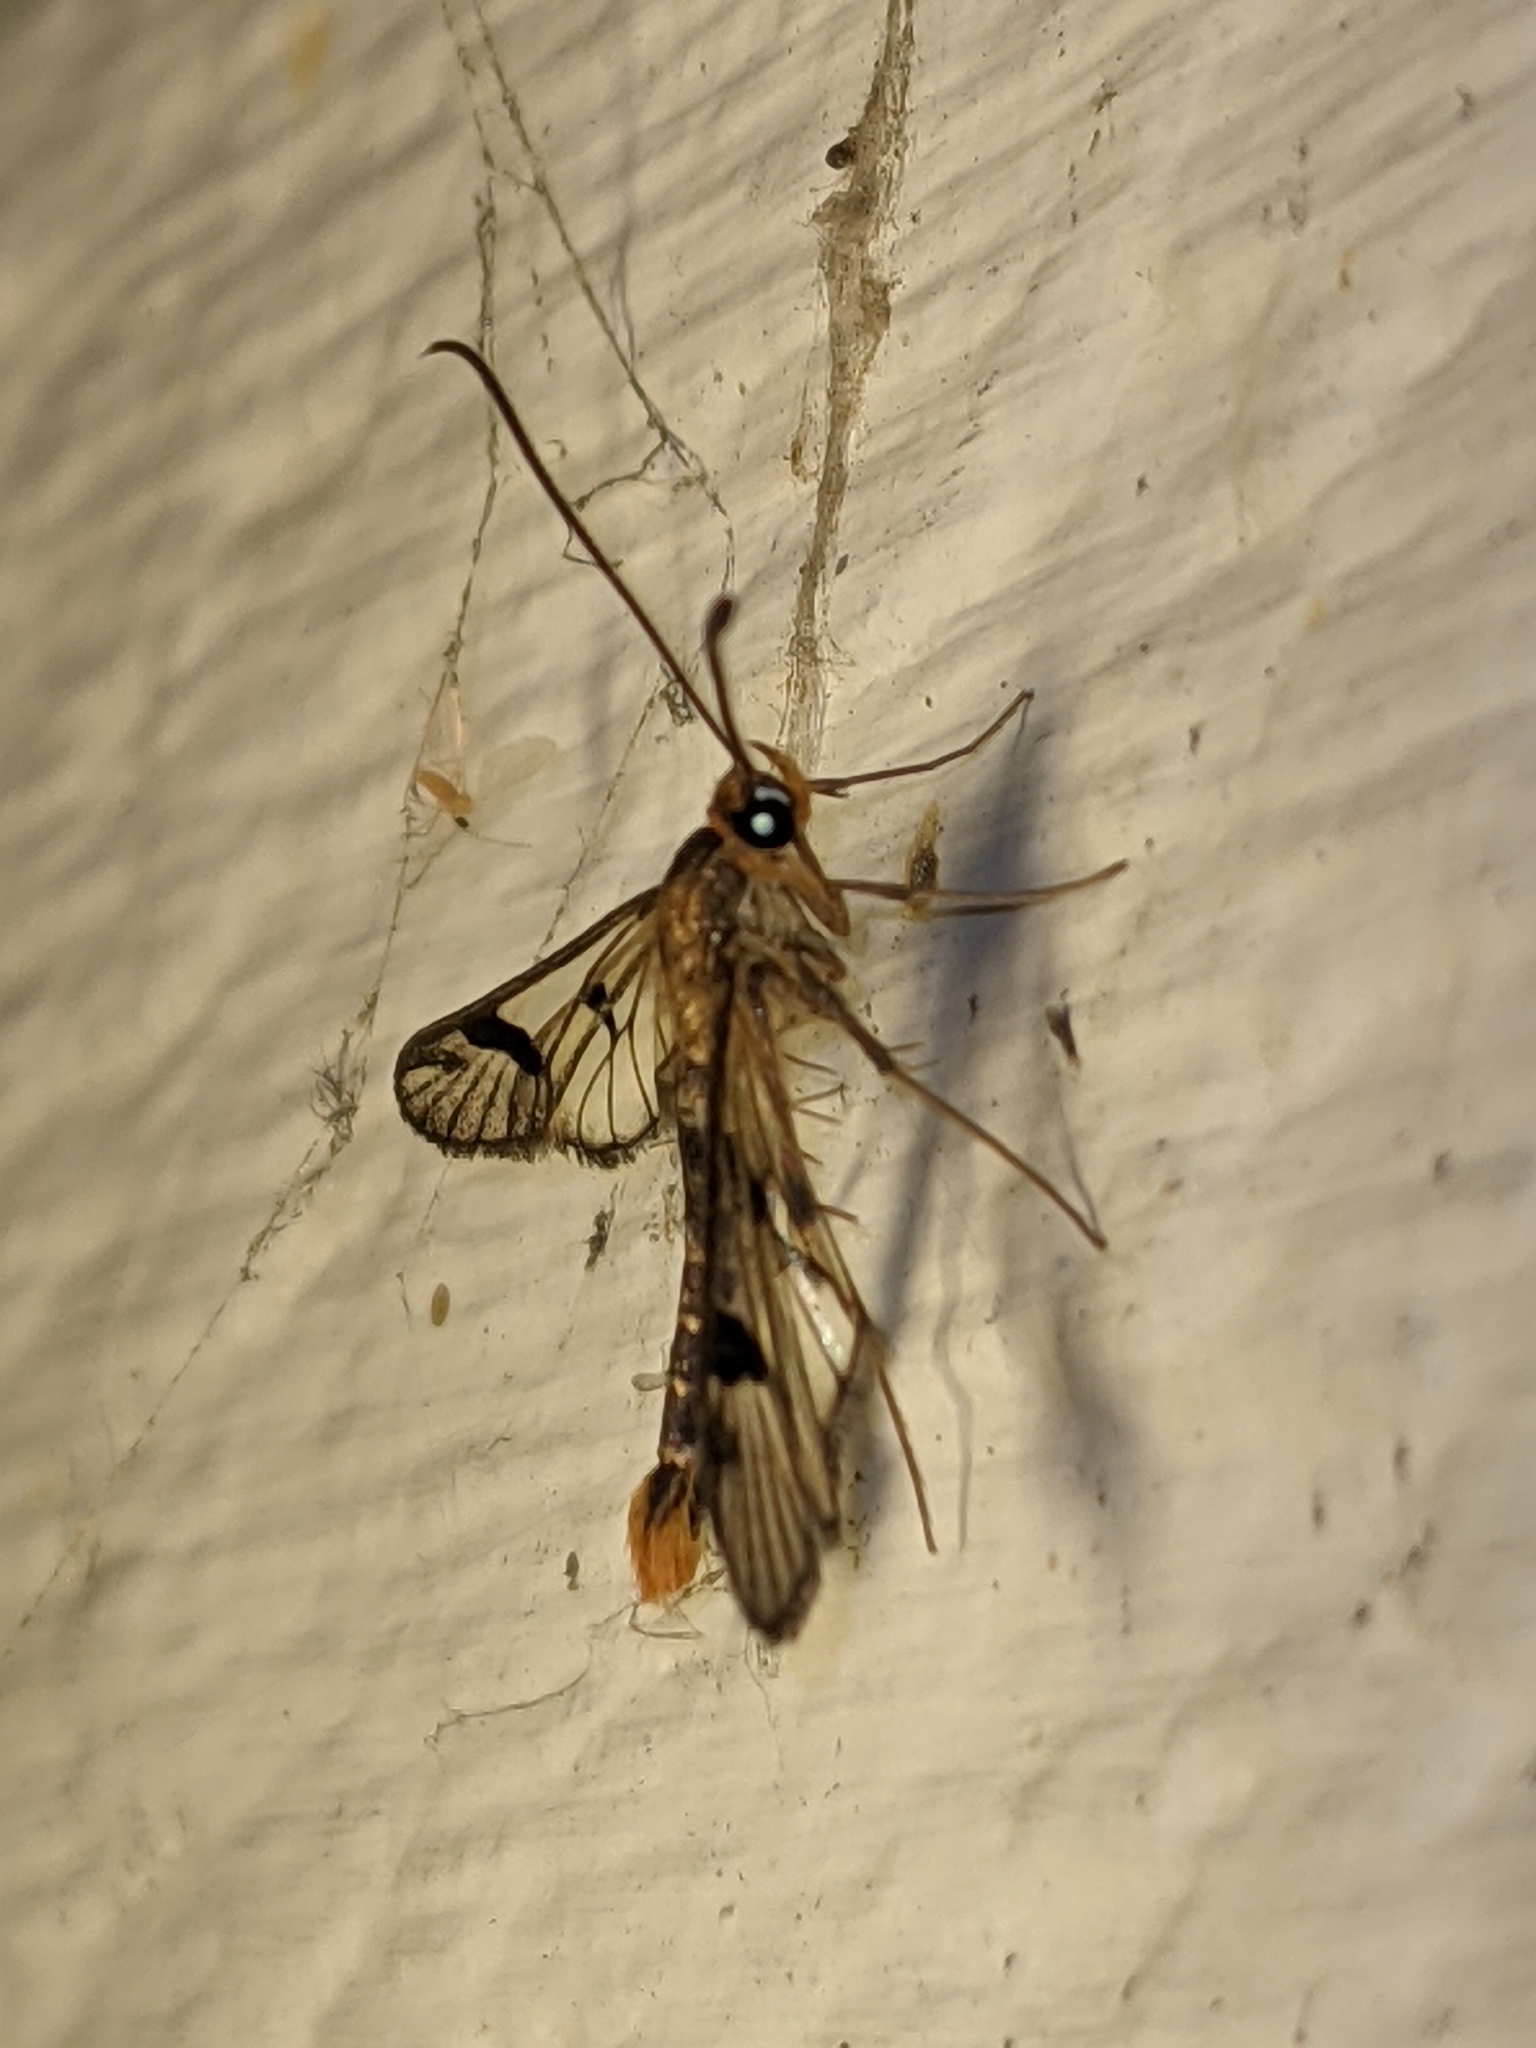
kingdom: Animalia
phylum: Arthropoda
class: Insecta
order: Lepidoptera
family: Sesiidae
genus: Synanthedon
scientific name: Synanthedon acerni
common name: Maple callus borer moth
